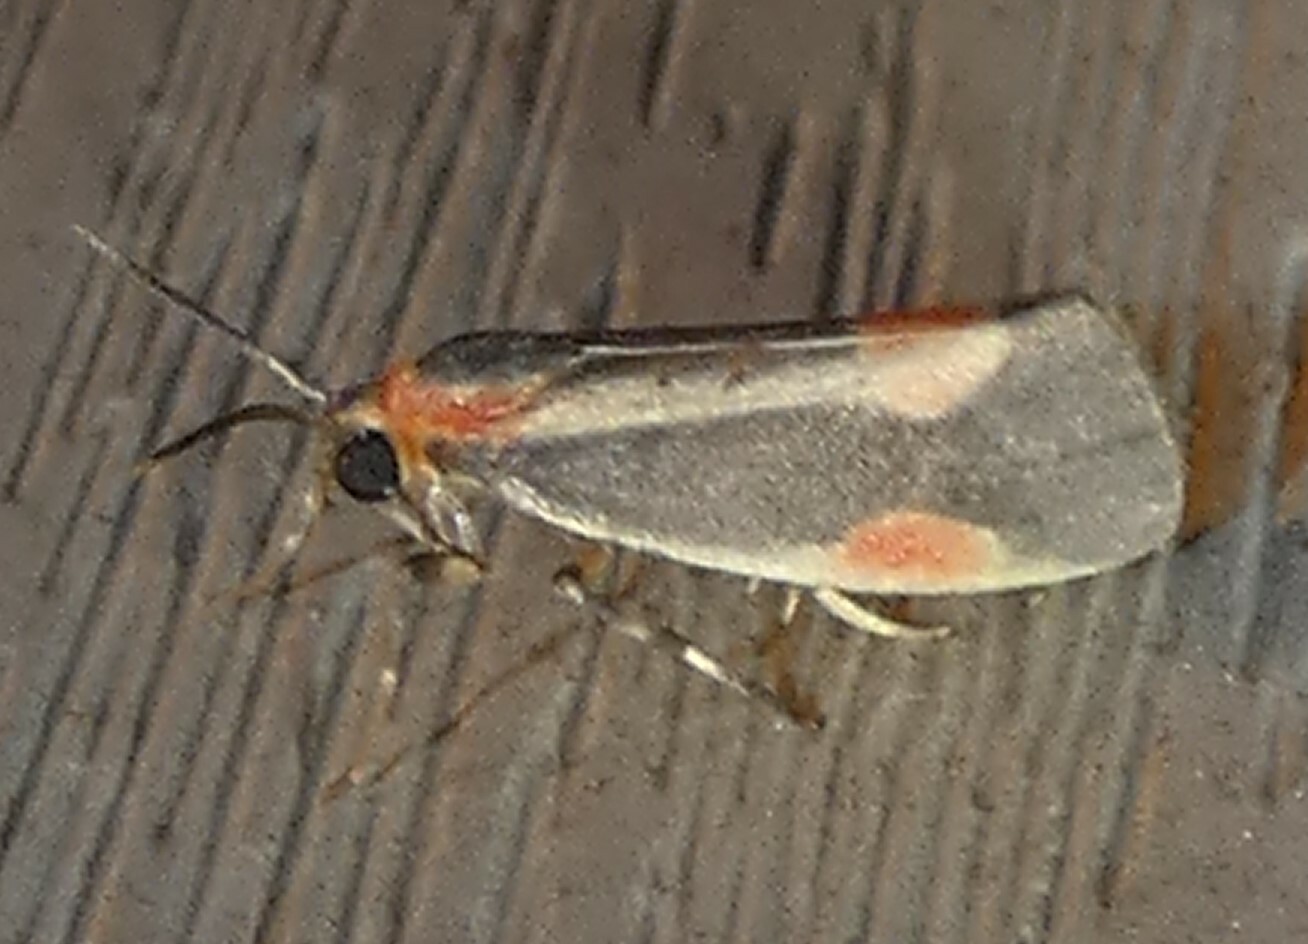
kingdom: Animalia
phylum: Arthropoda
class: Insecta
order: Lepidoptera
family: Erebidae
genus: Cisthene
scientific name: Cisthene packardii
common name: Packard's lichen moth
